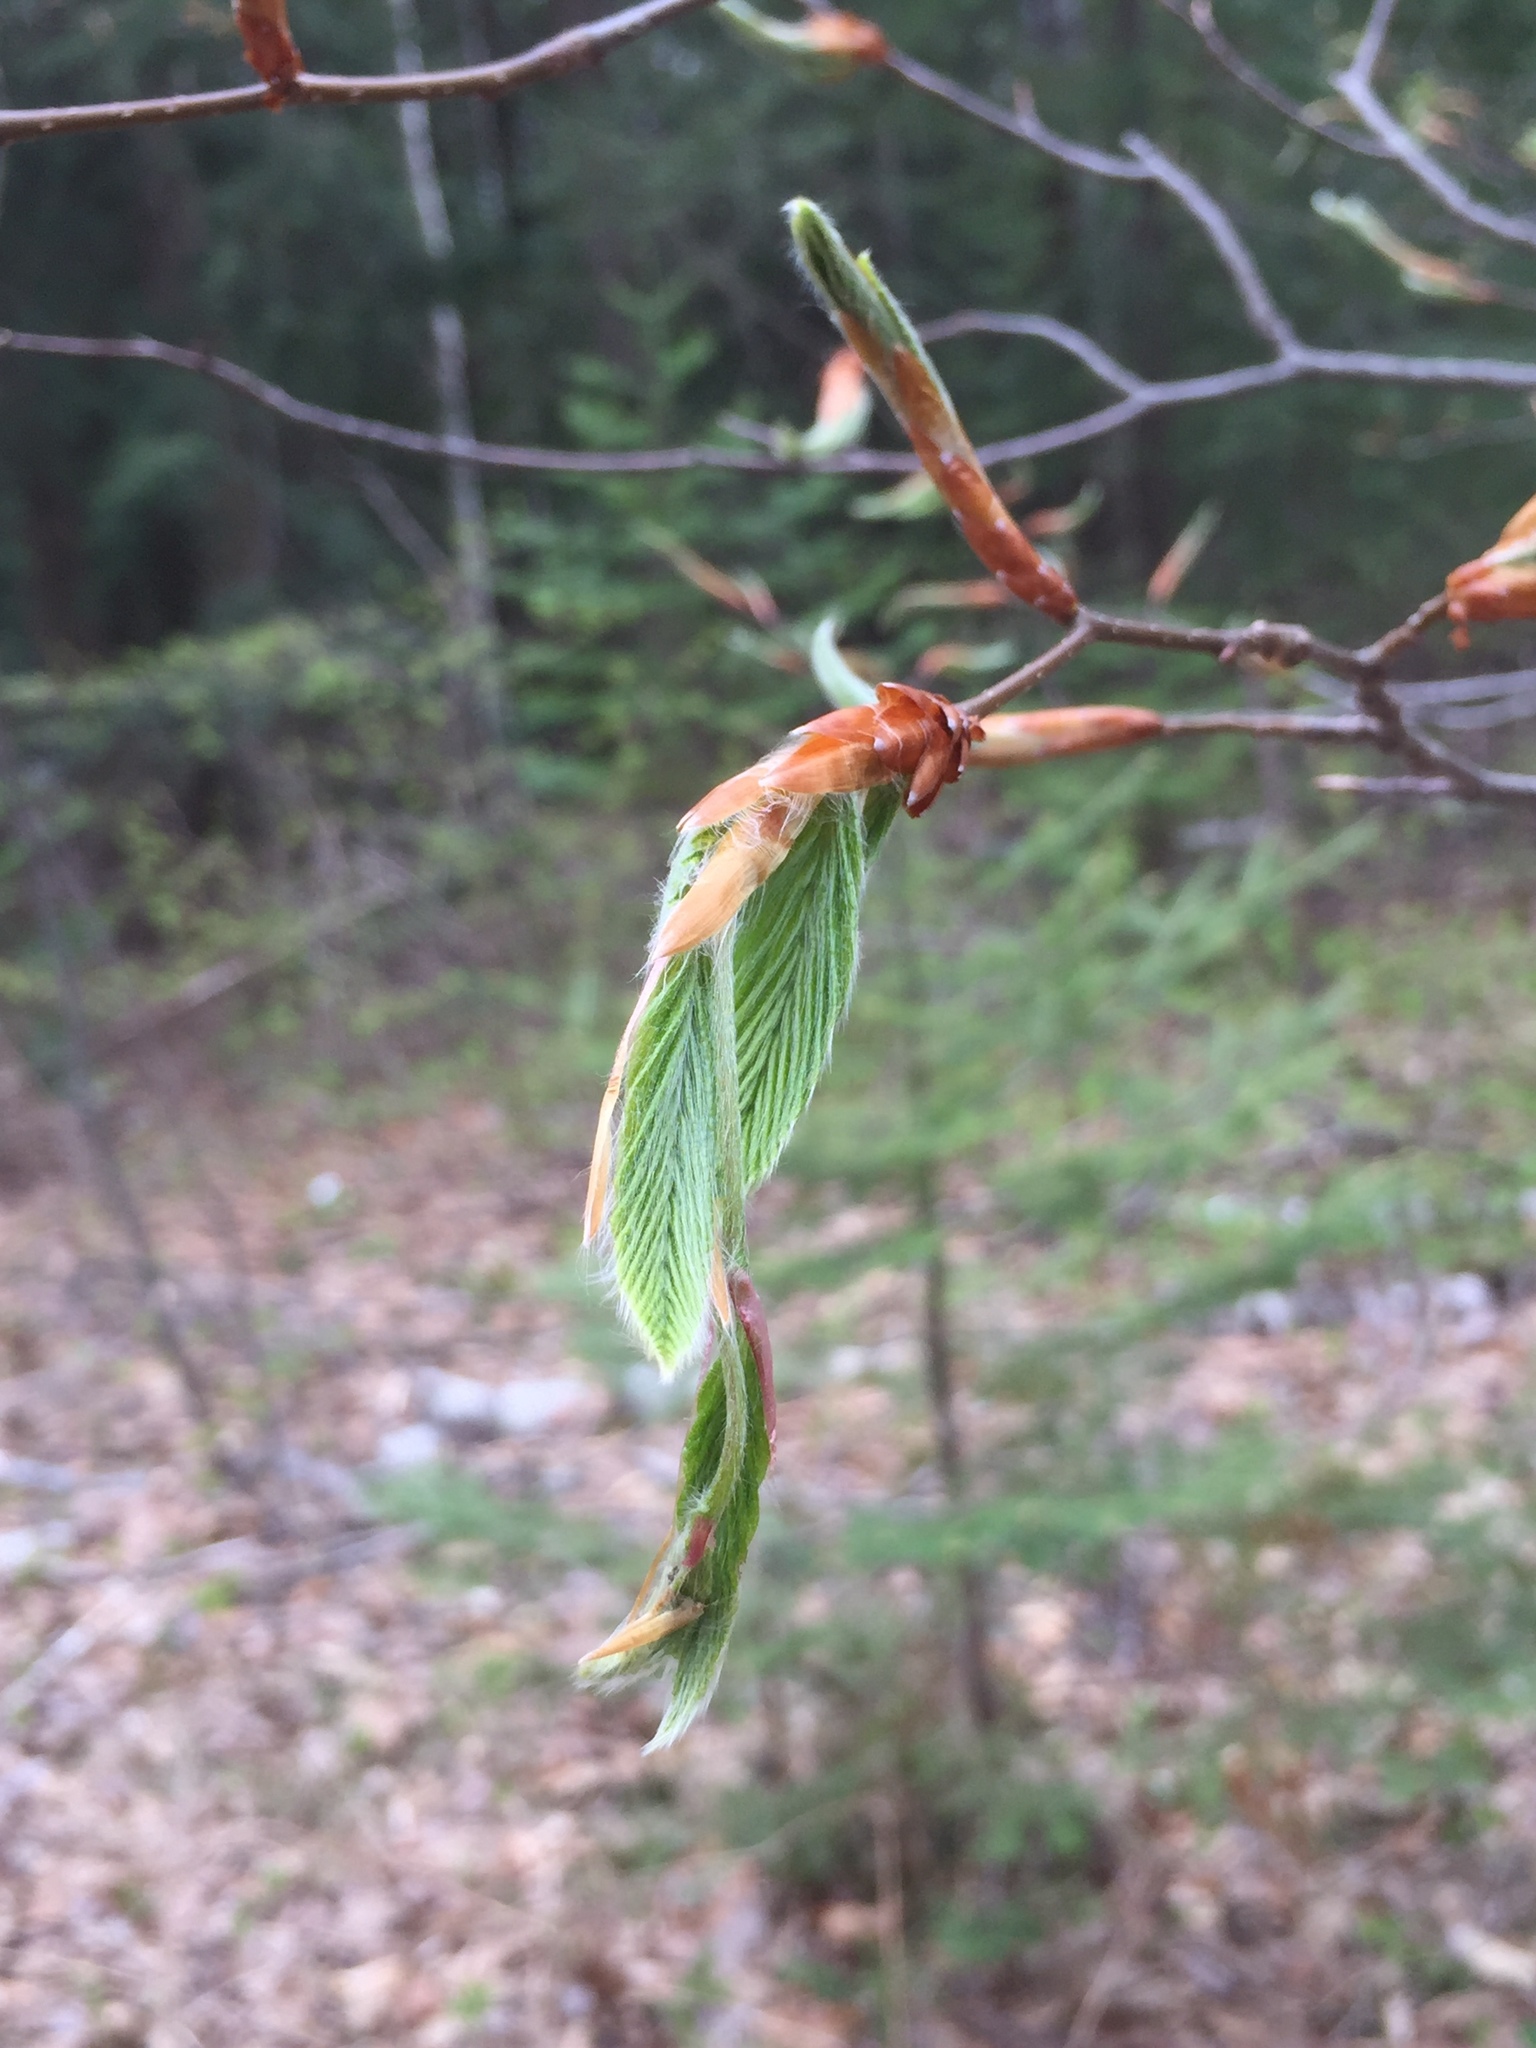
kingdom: Plantae
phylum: Tracheophyta
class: Magnoliopsida
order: Fagales
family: Fagaceae
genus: Fagus
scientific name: Fagus grandifolia
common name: American beech
